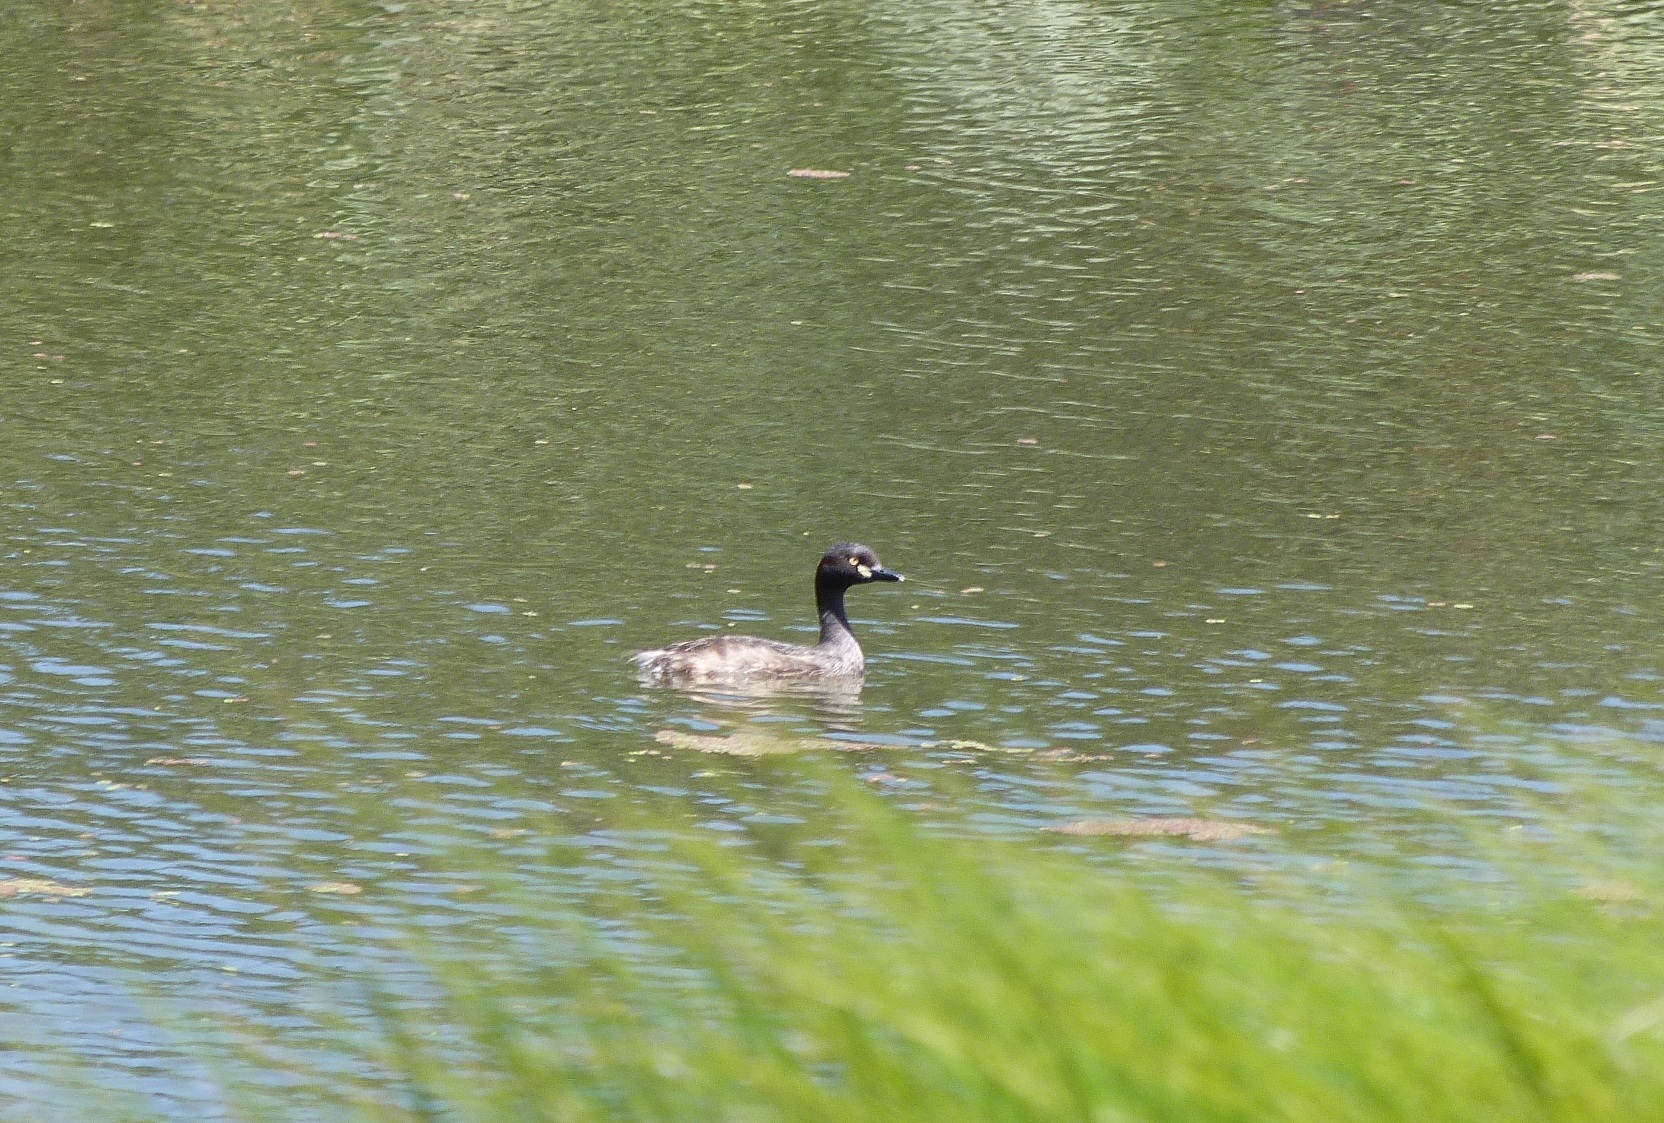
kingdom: Animalia
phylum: Chordata
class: Aves
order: Podicipediformes
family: Podicipedidae
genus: Tachybaptus
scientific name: Tachybaptus novaehollandiae
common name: Australasian grebe
